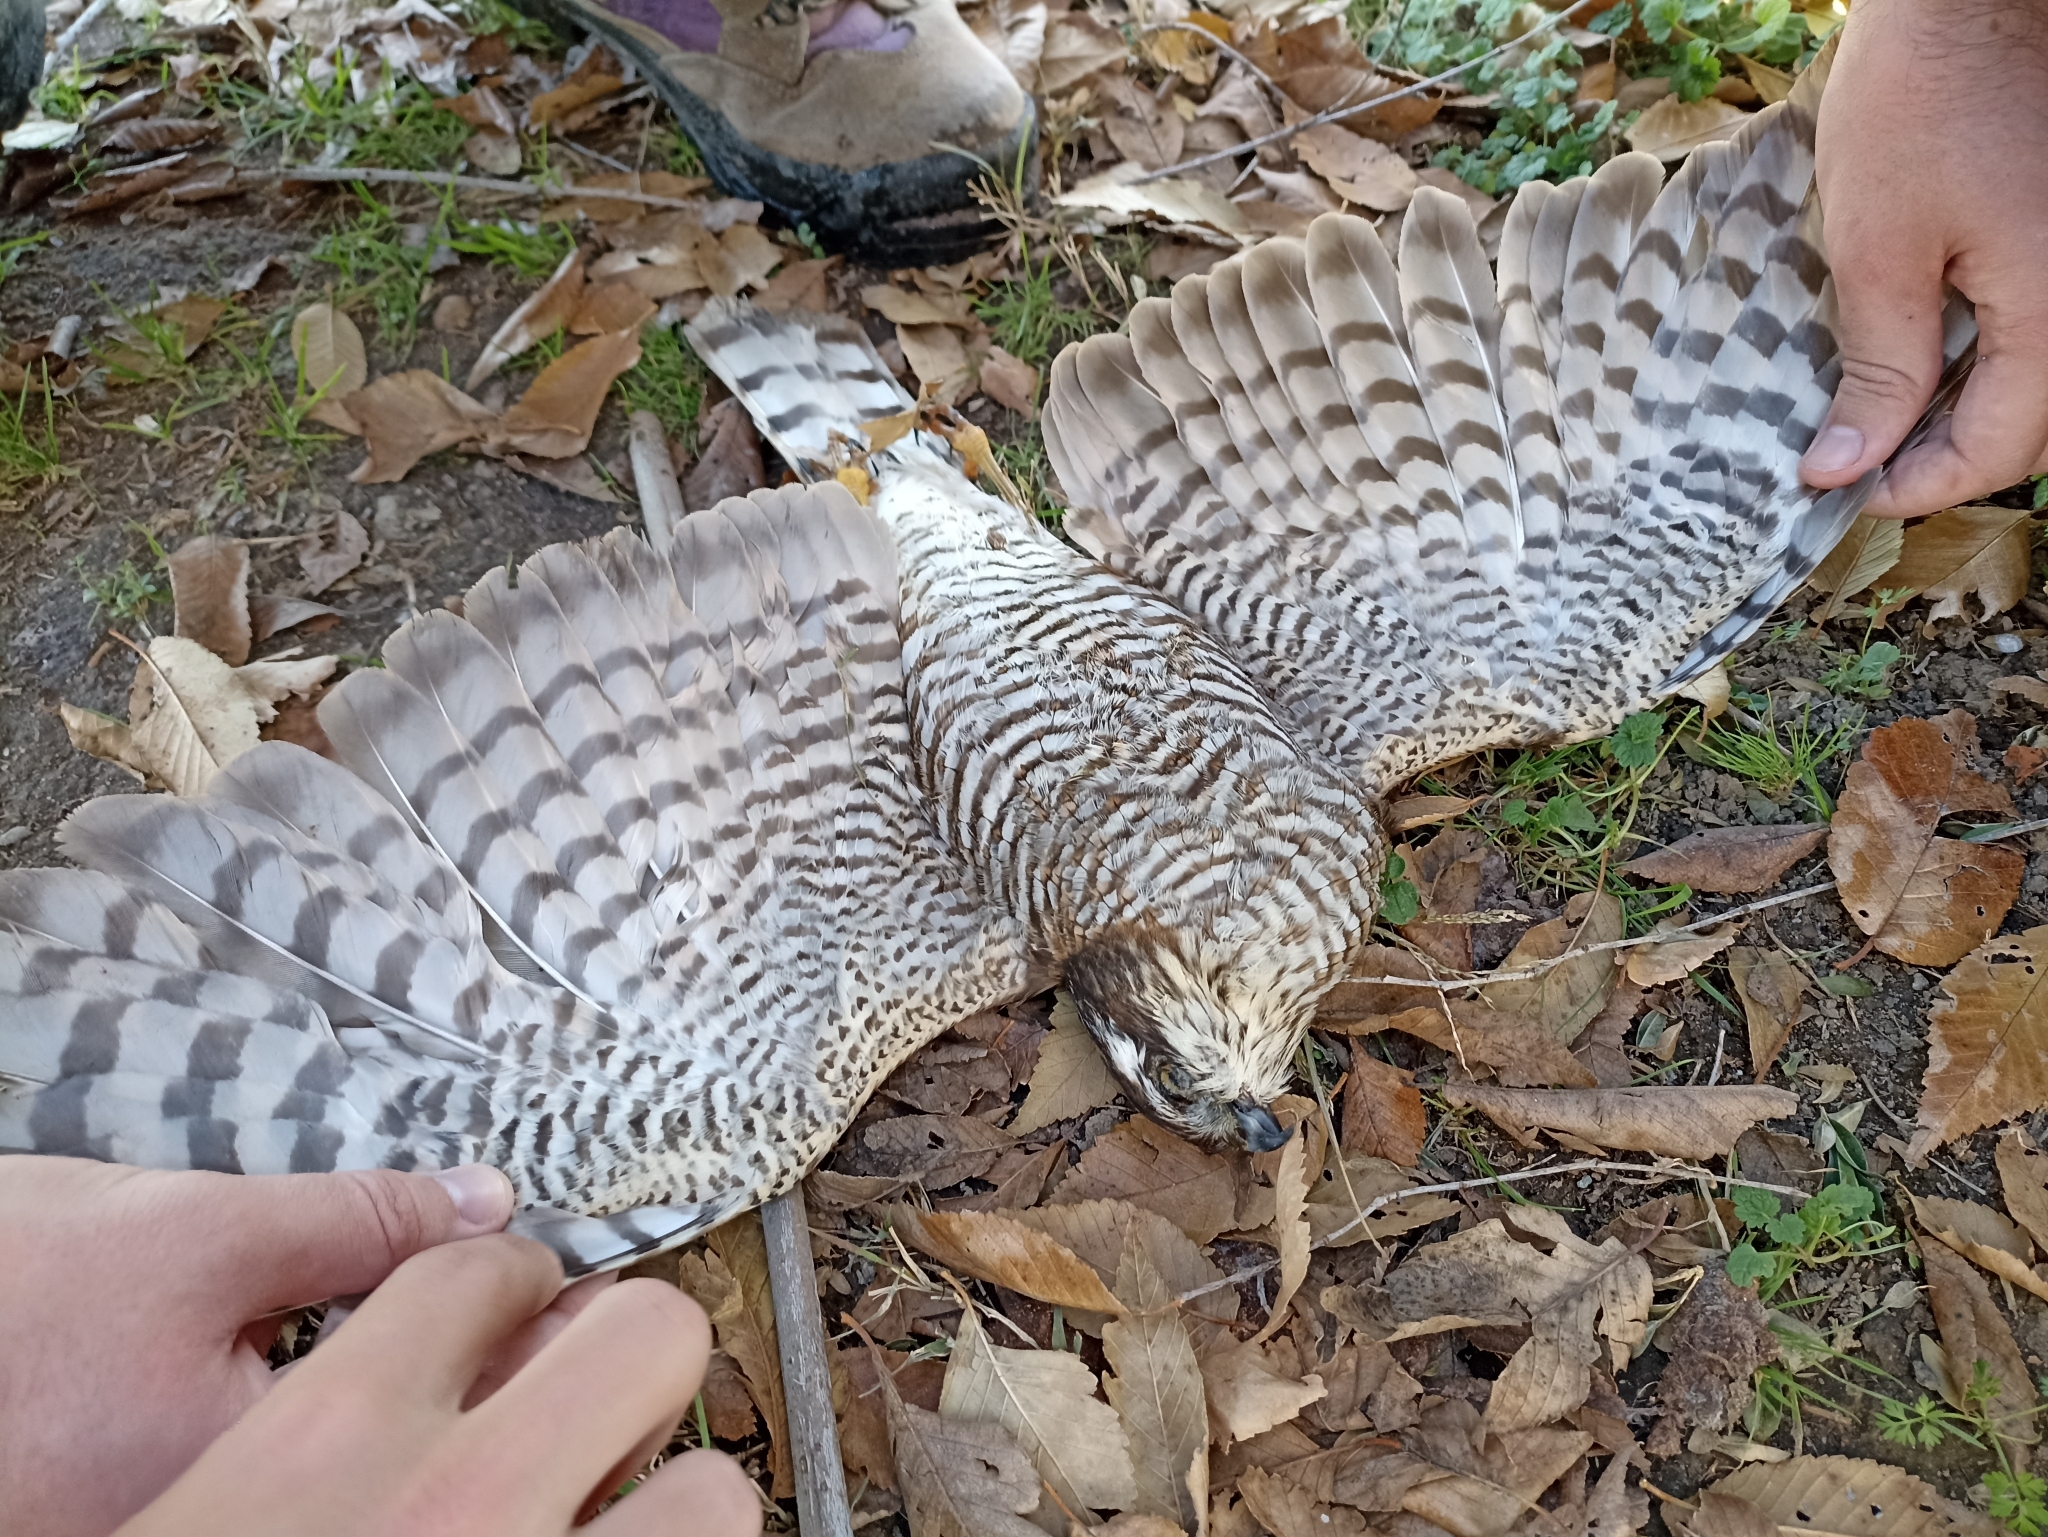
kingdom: Animalia
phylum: Chordata
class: Aves
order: Accipitriformes
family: Accipitridae
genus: Accipiter
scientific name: Accipiter nisus
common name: Eurasian sparrowhawk
